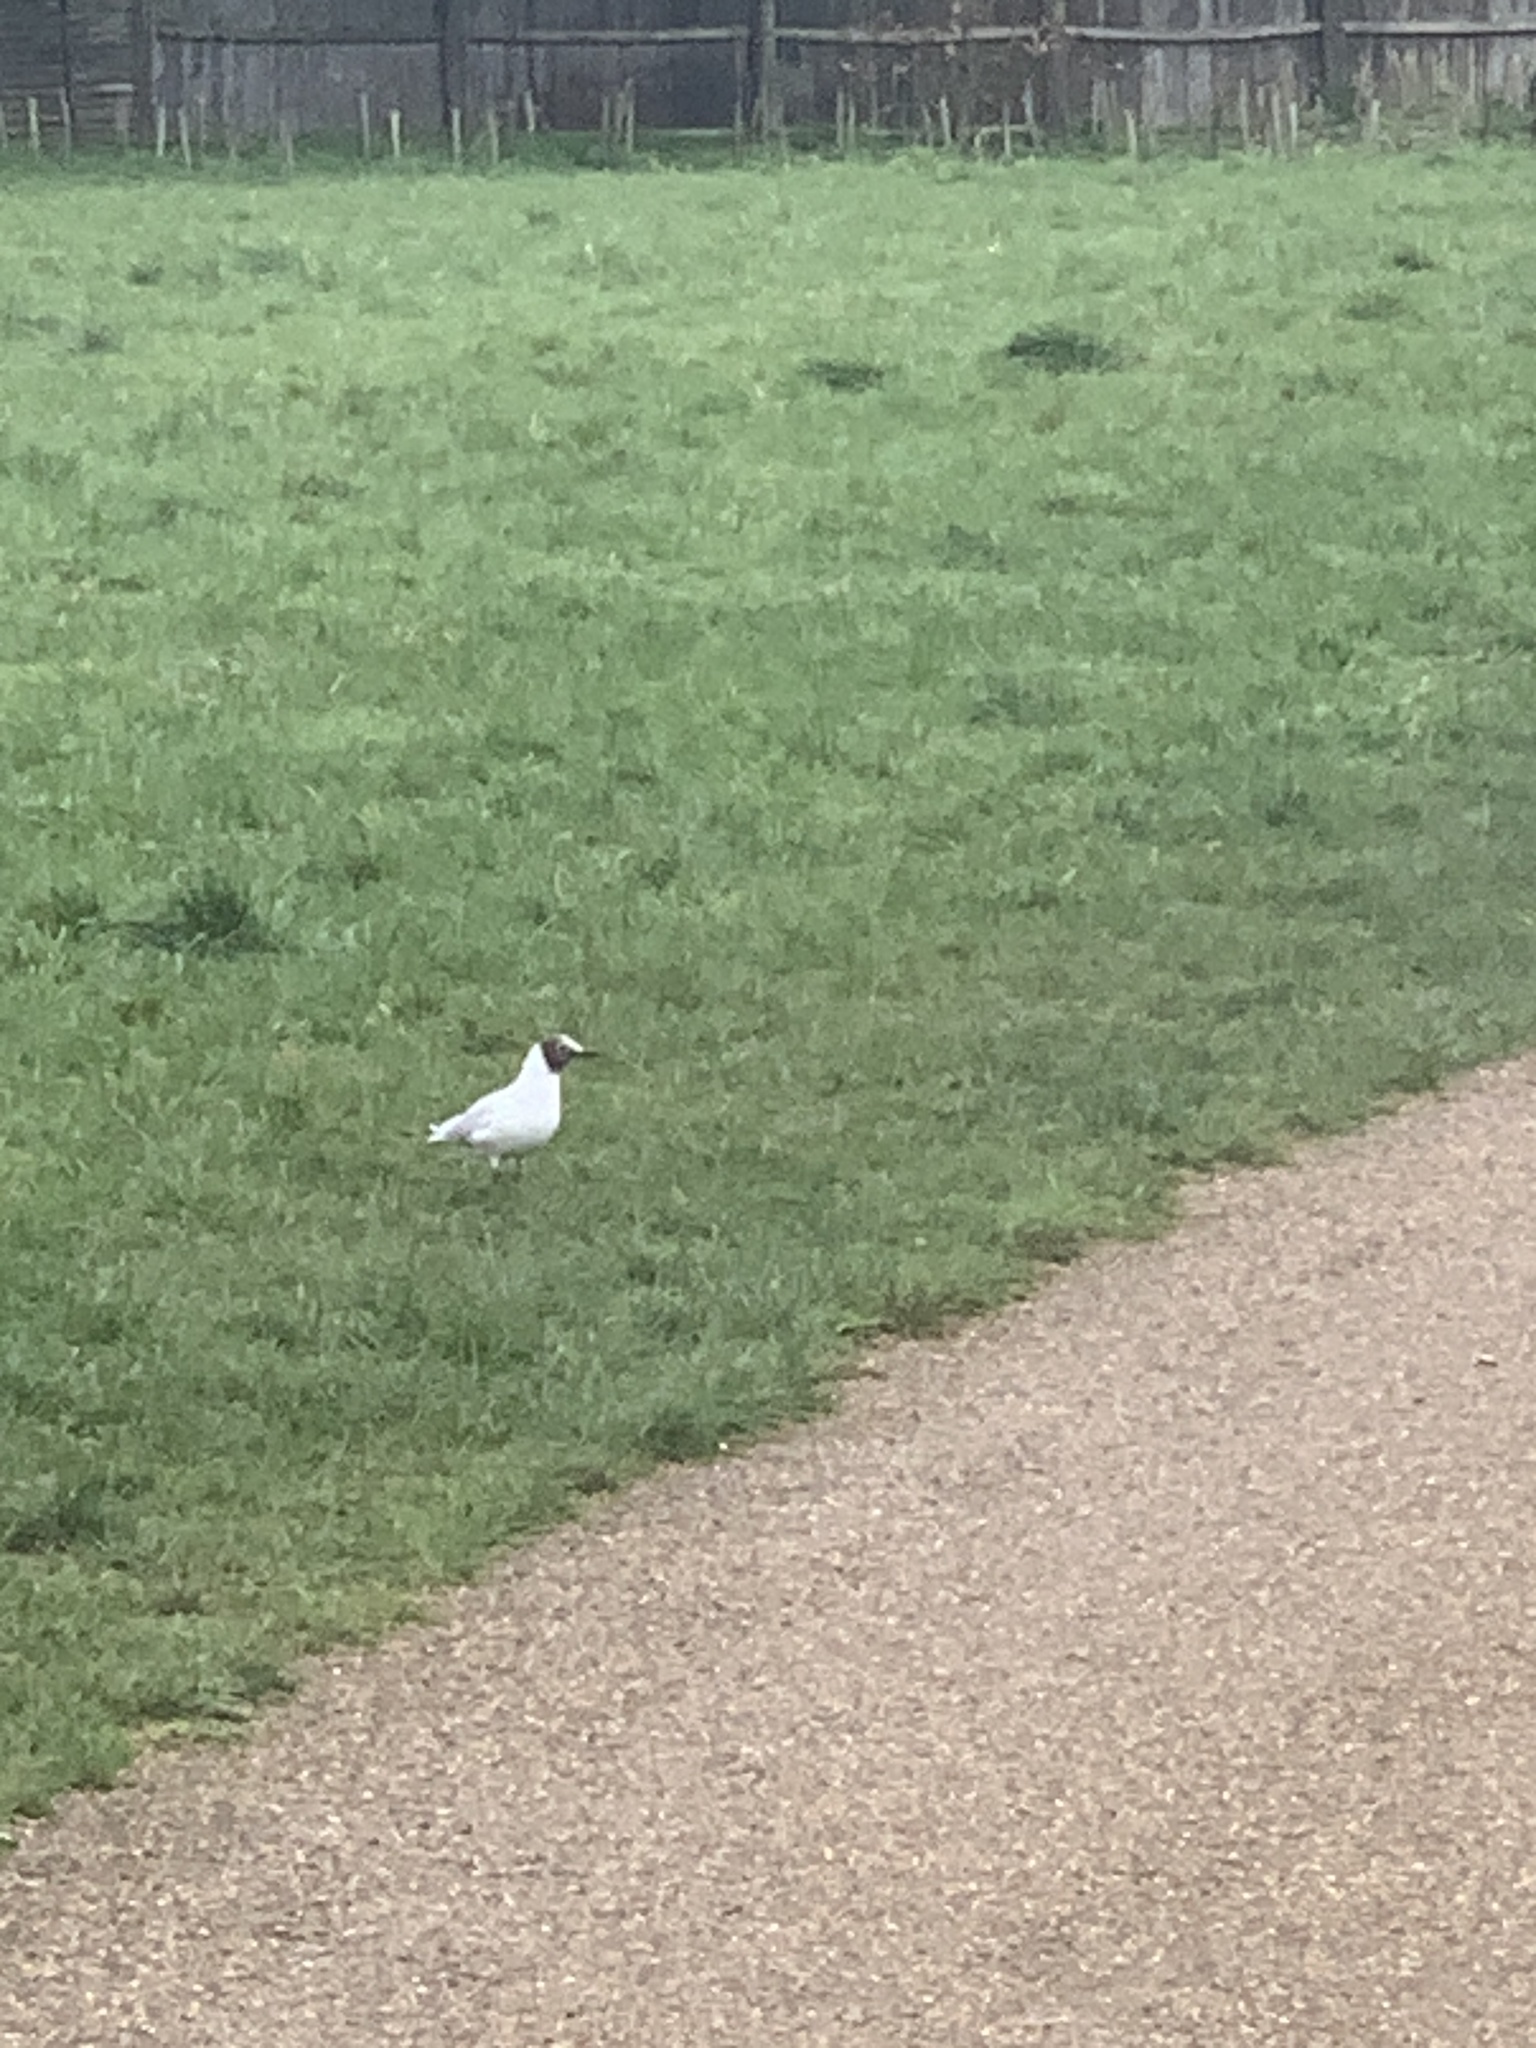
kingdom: Animalia
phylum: Chordata
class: Aves
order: Charadriiformes
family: Laridae
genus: Chroicocephalus
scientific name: Chroicocephalus ridibundus
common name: Black-headed gull
